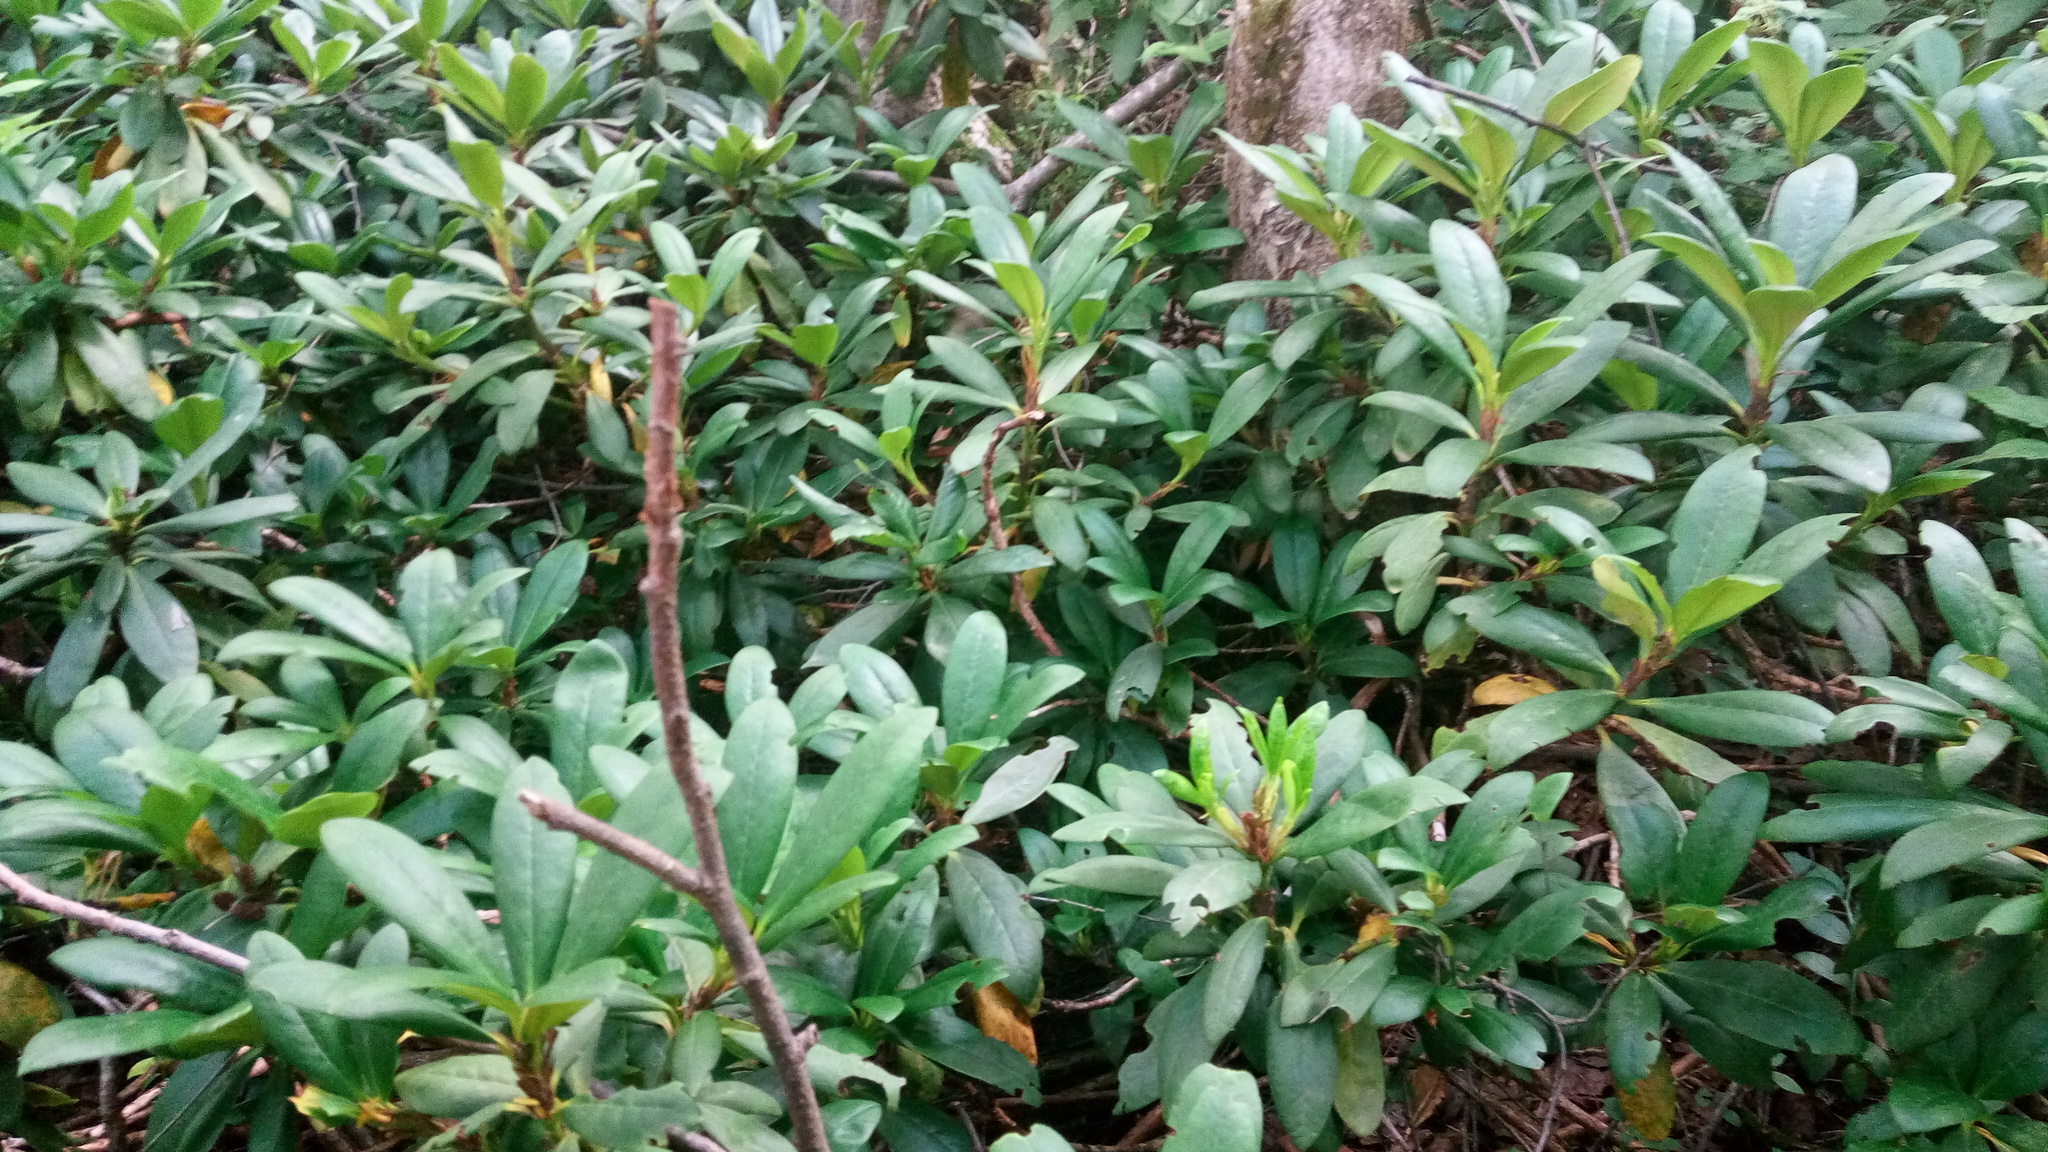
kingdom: Plantae
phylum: Tracheophyta
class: Magnoliopsida
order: Ericales
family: Ericaceae
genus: Rhododendron
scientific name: Rhododendron ponticum
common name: Rhododendron
